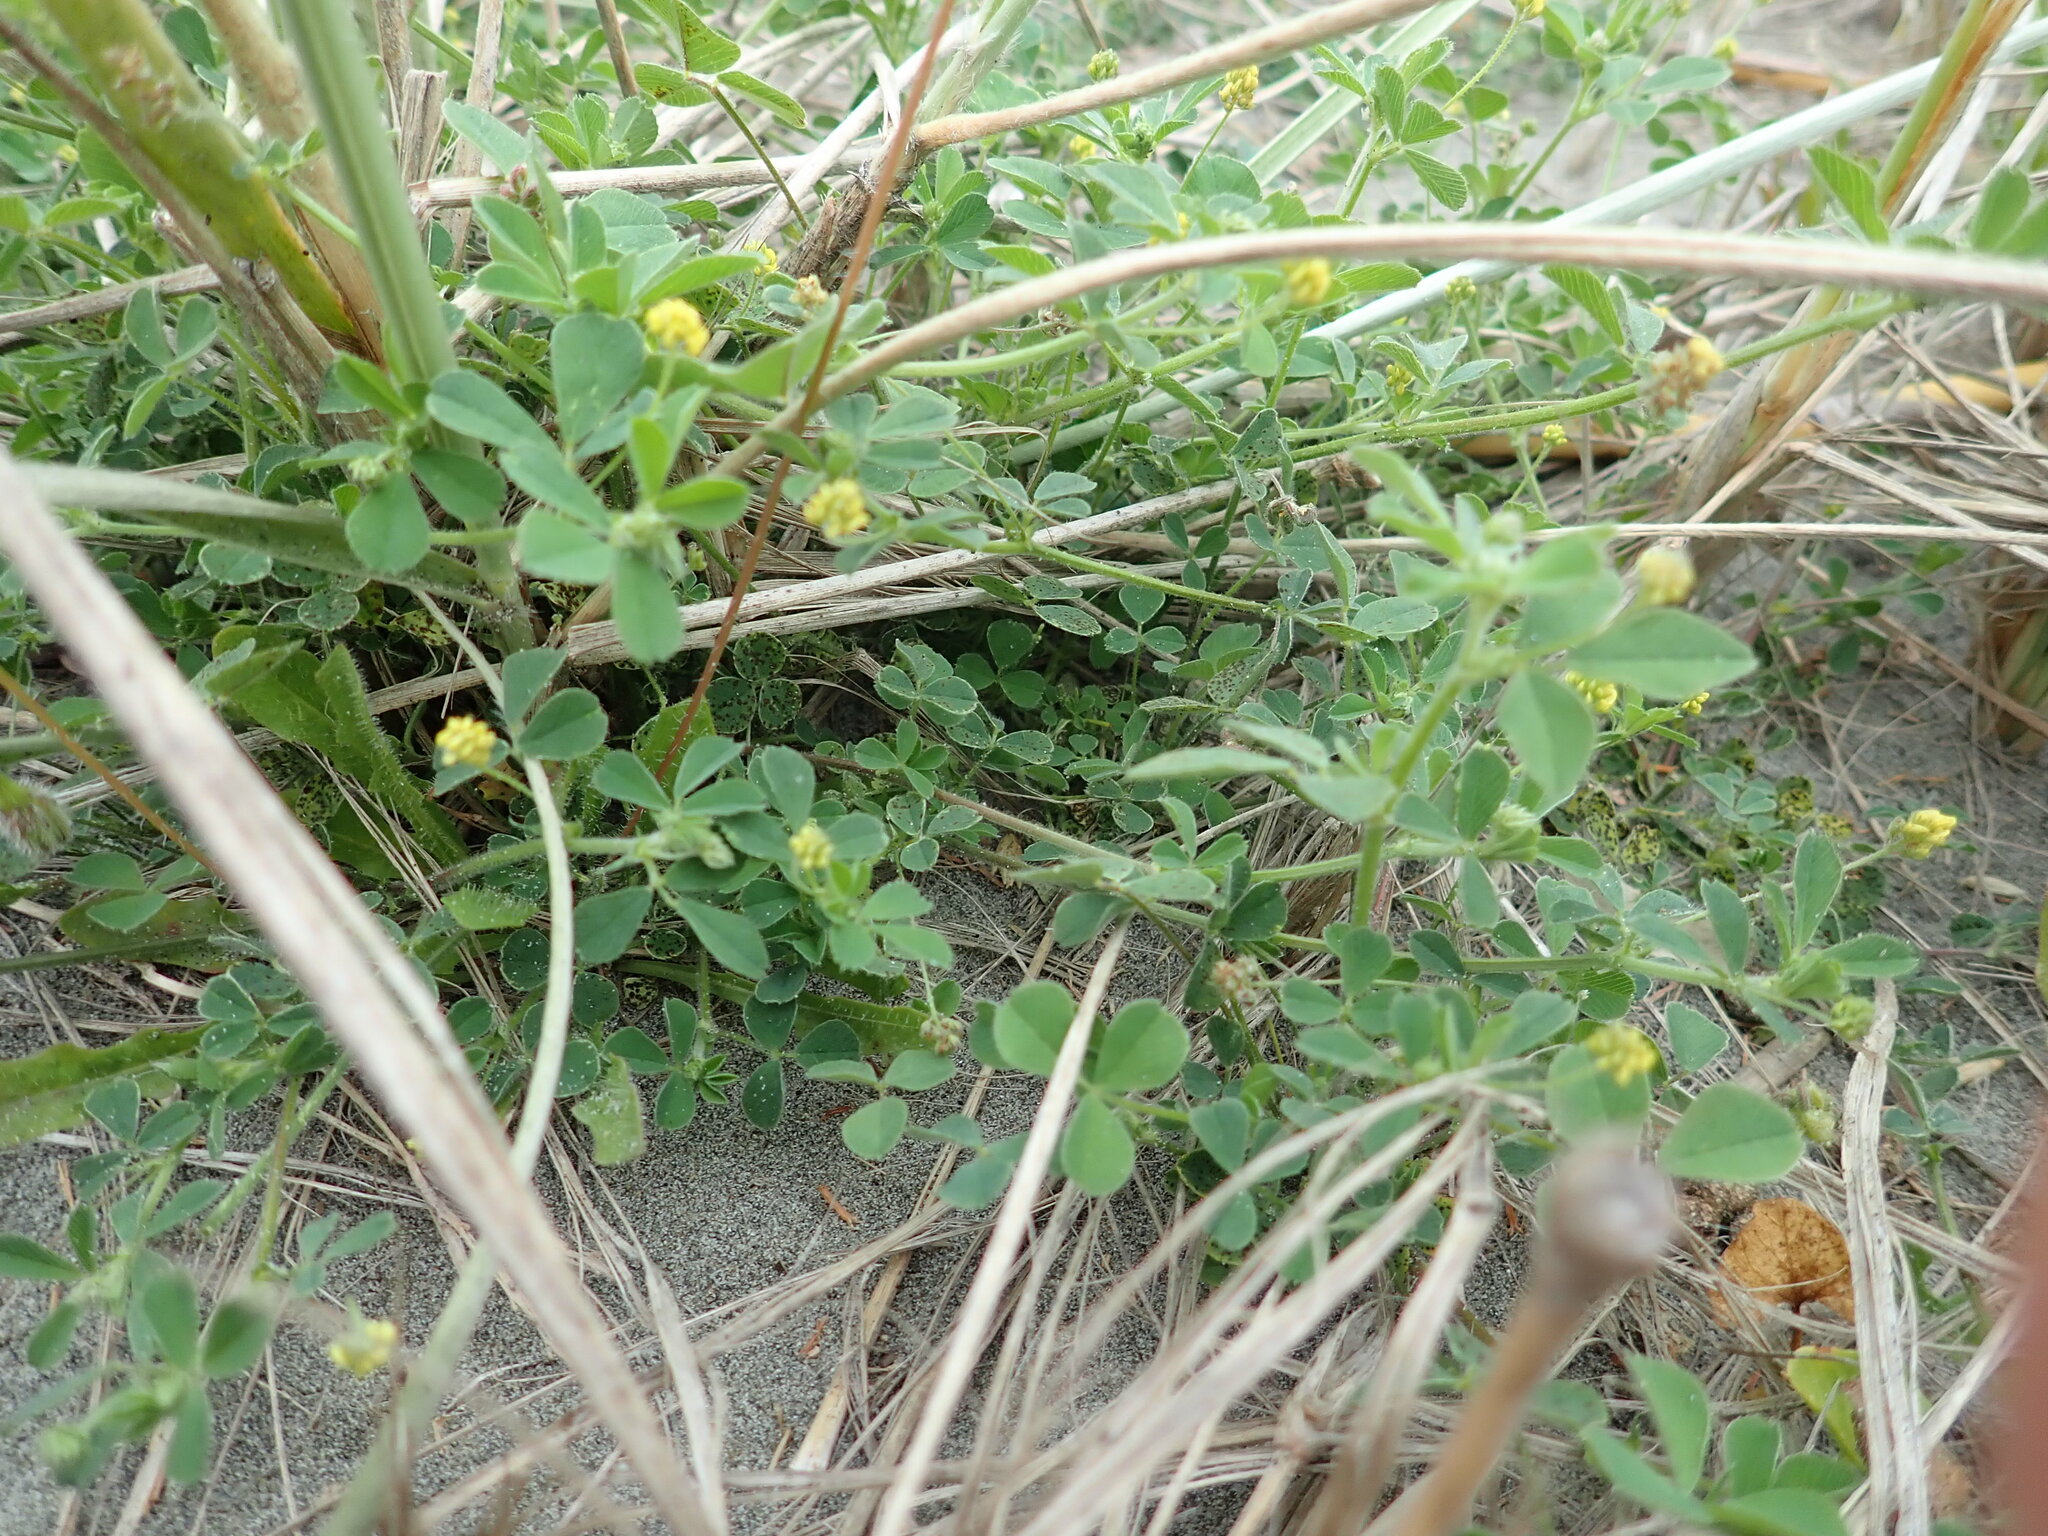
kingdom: Plantae
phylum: Tracheophyta
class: Magnoliopsida
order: Fabales
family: Fabaceae
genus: Medicago
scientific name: Medicago lupulina
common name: Black medick
